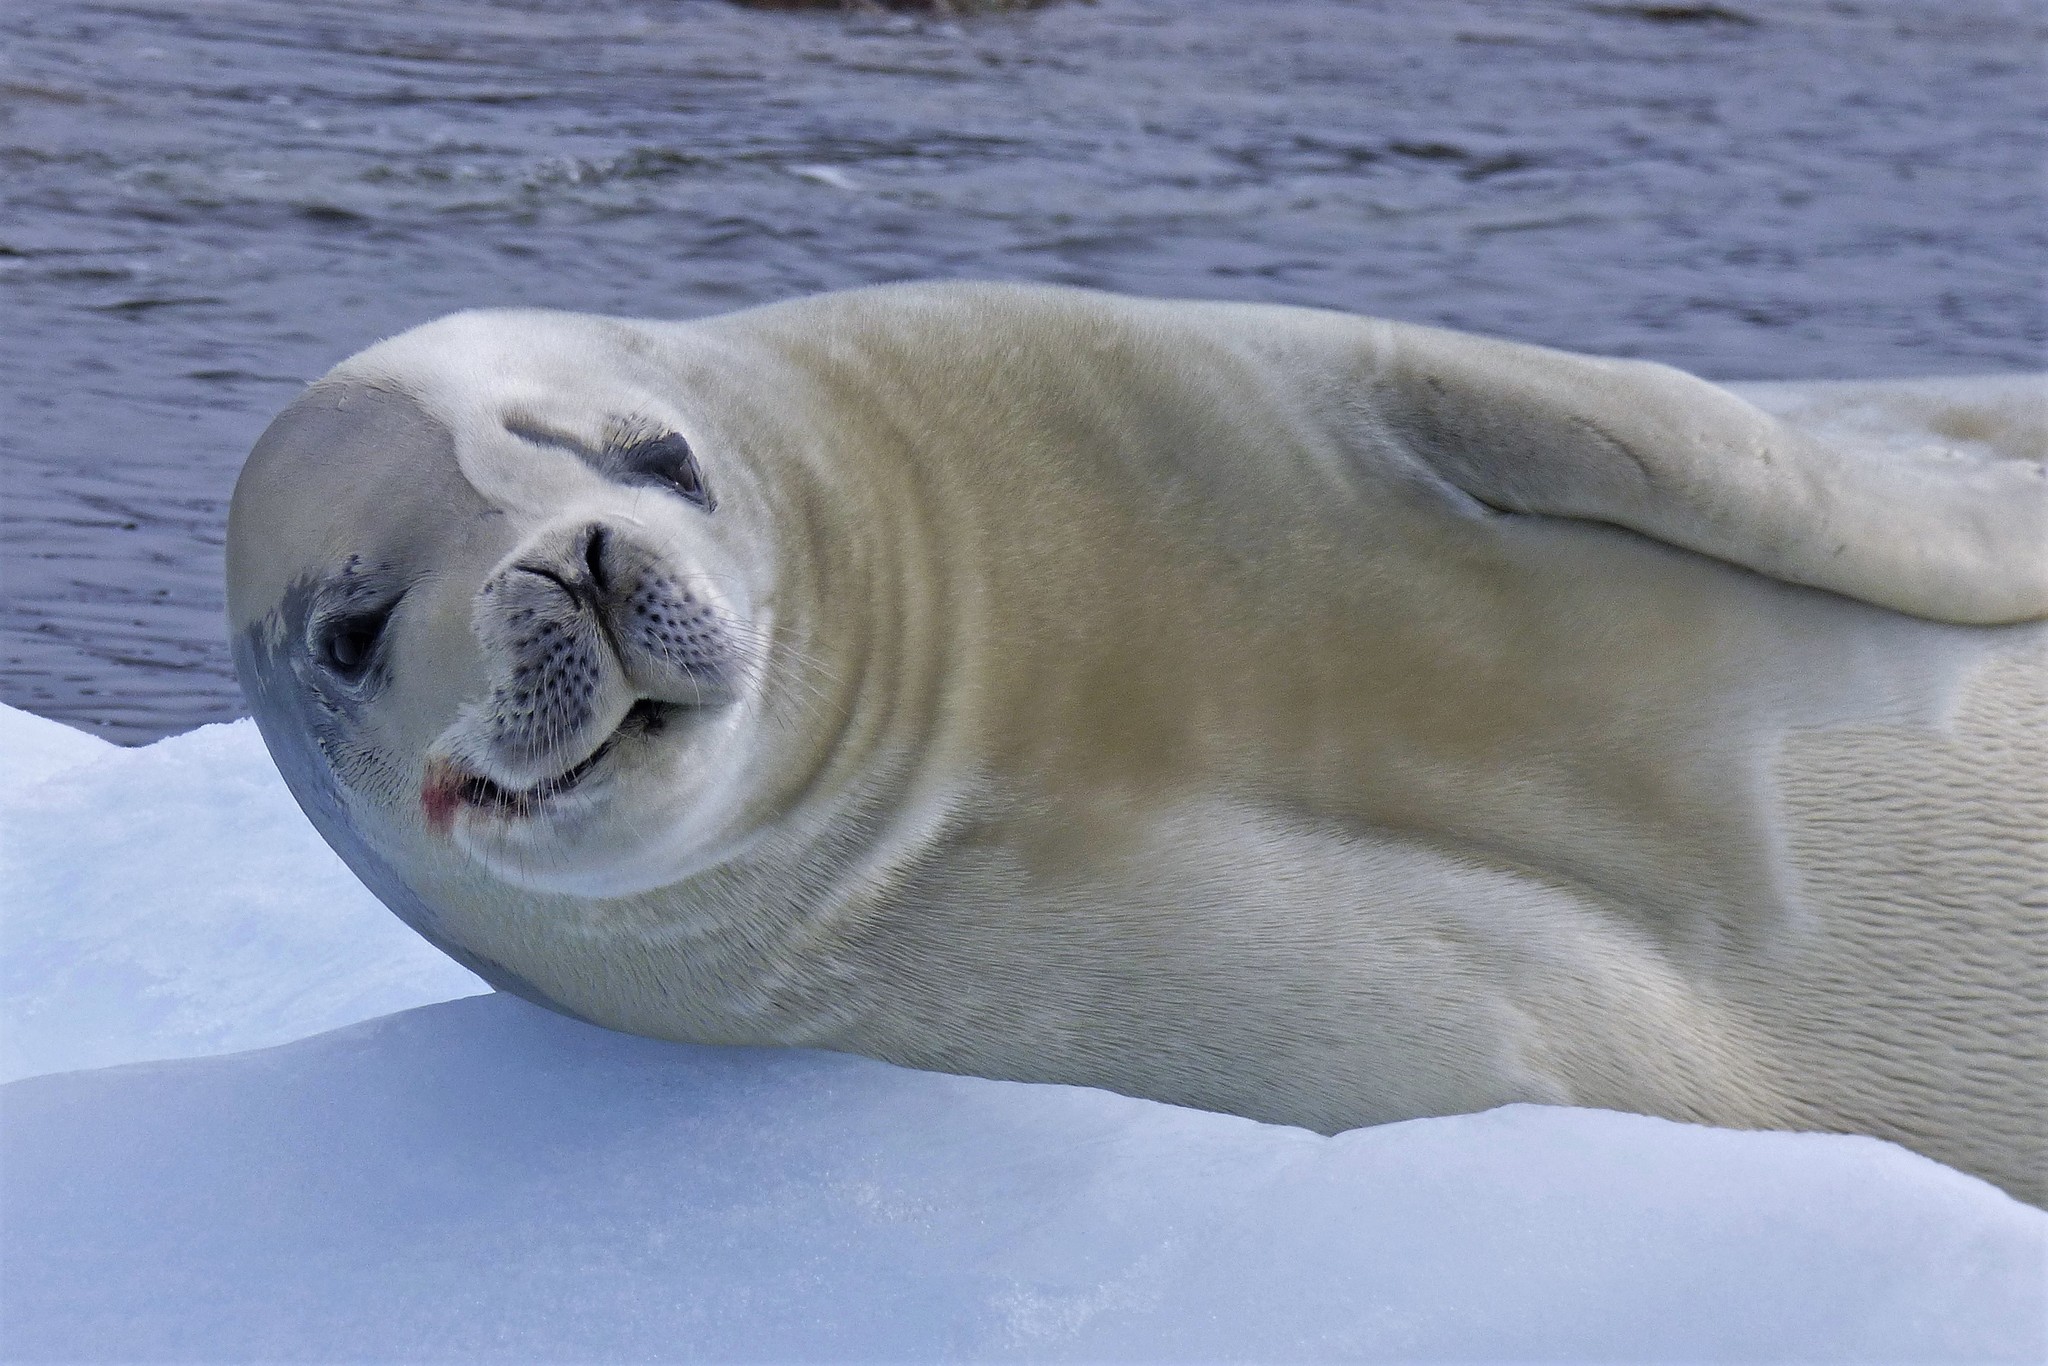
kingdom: Animalia
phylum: Chordata
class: Mammalia
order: Carnivora
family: Phocidae
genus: Lobodon
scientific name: Lobodon carcinophaga
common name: Crabeater seal
